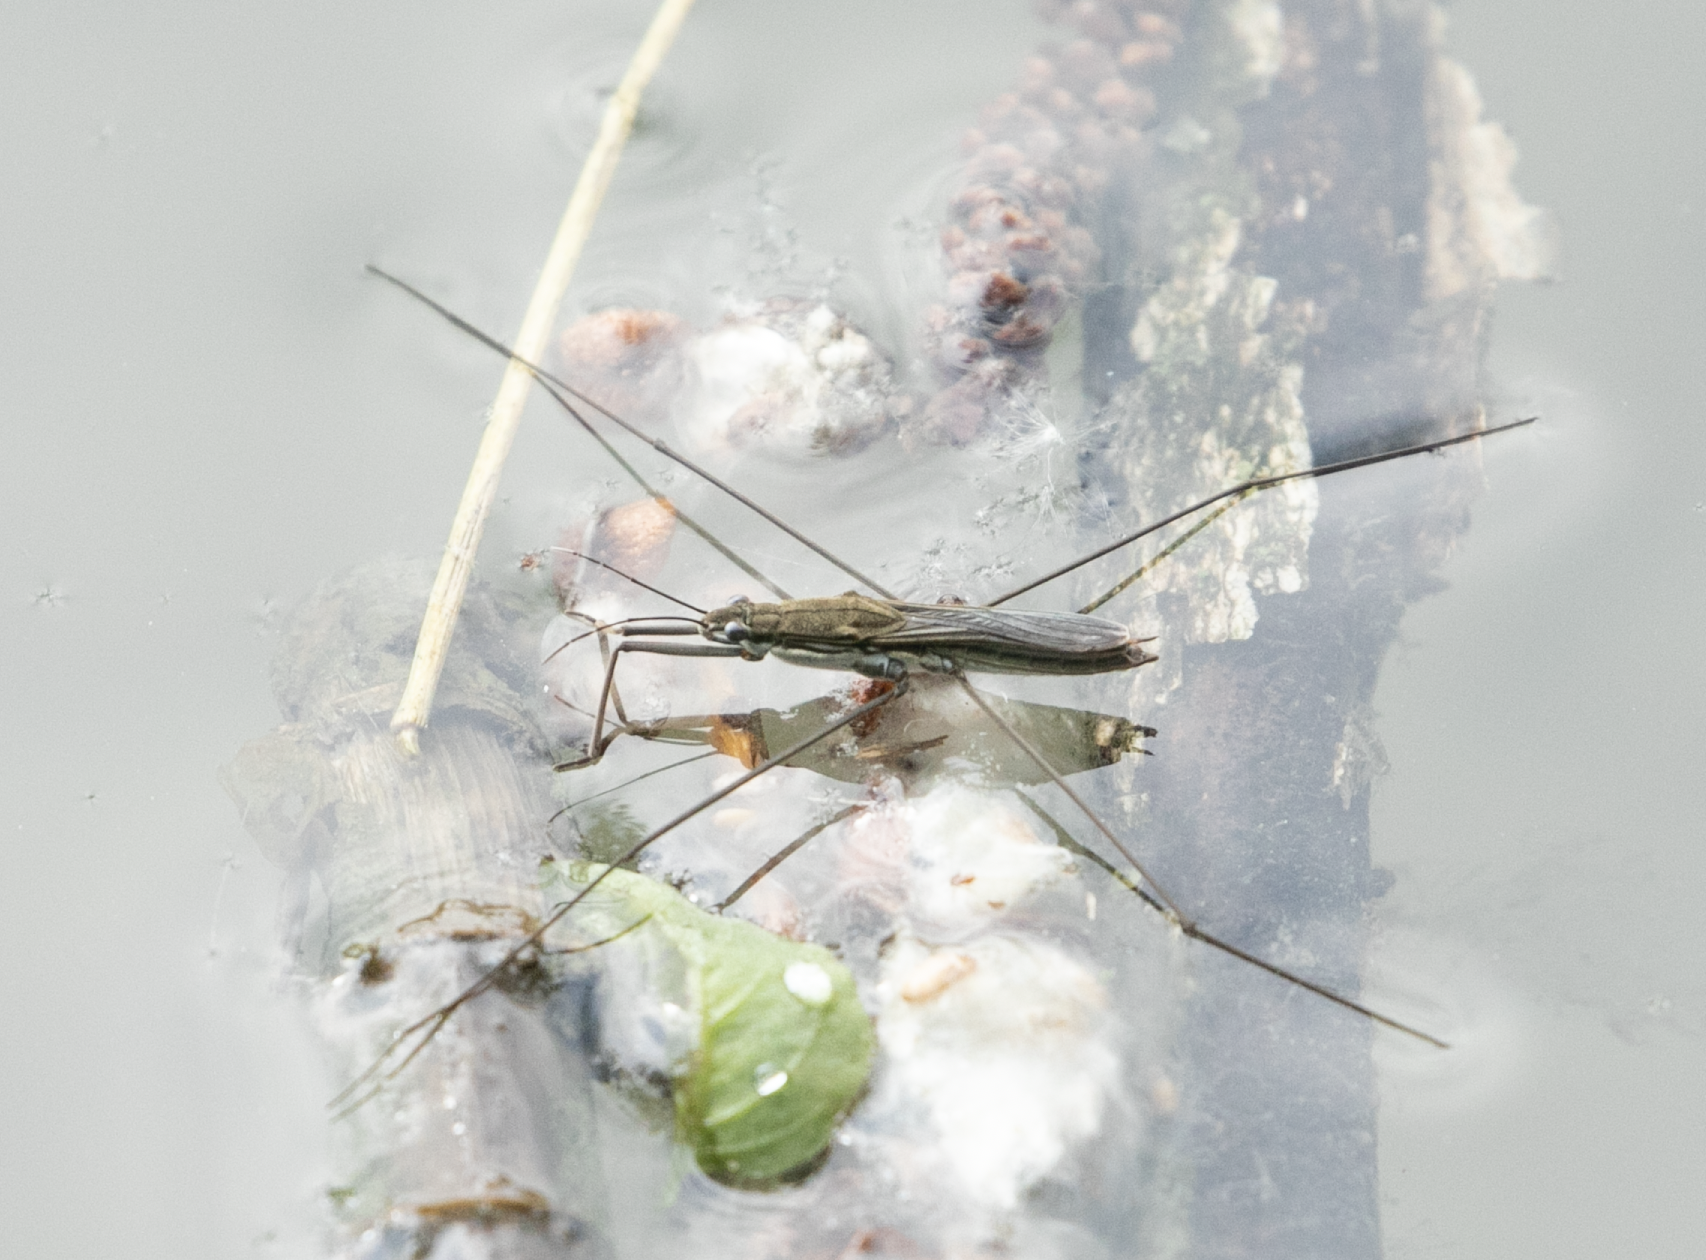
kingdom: Animalia
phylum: Arthropoda
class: Insecta
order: Hemiptera
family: Gerridae
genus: Aquarius
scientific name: Aquarius paludum
